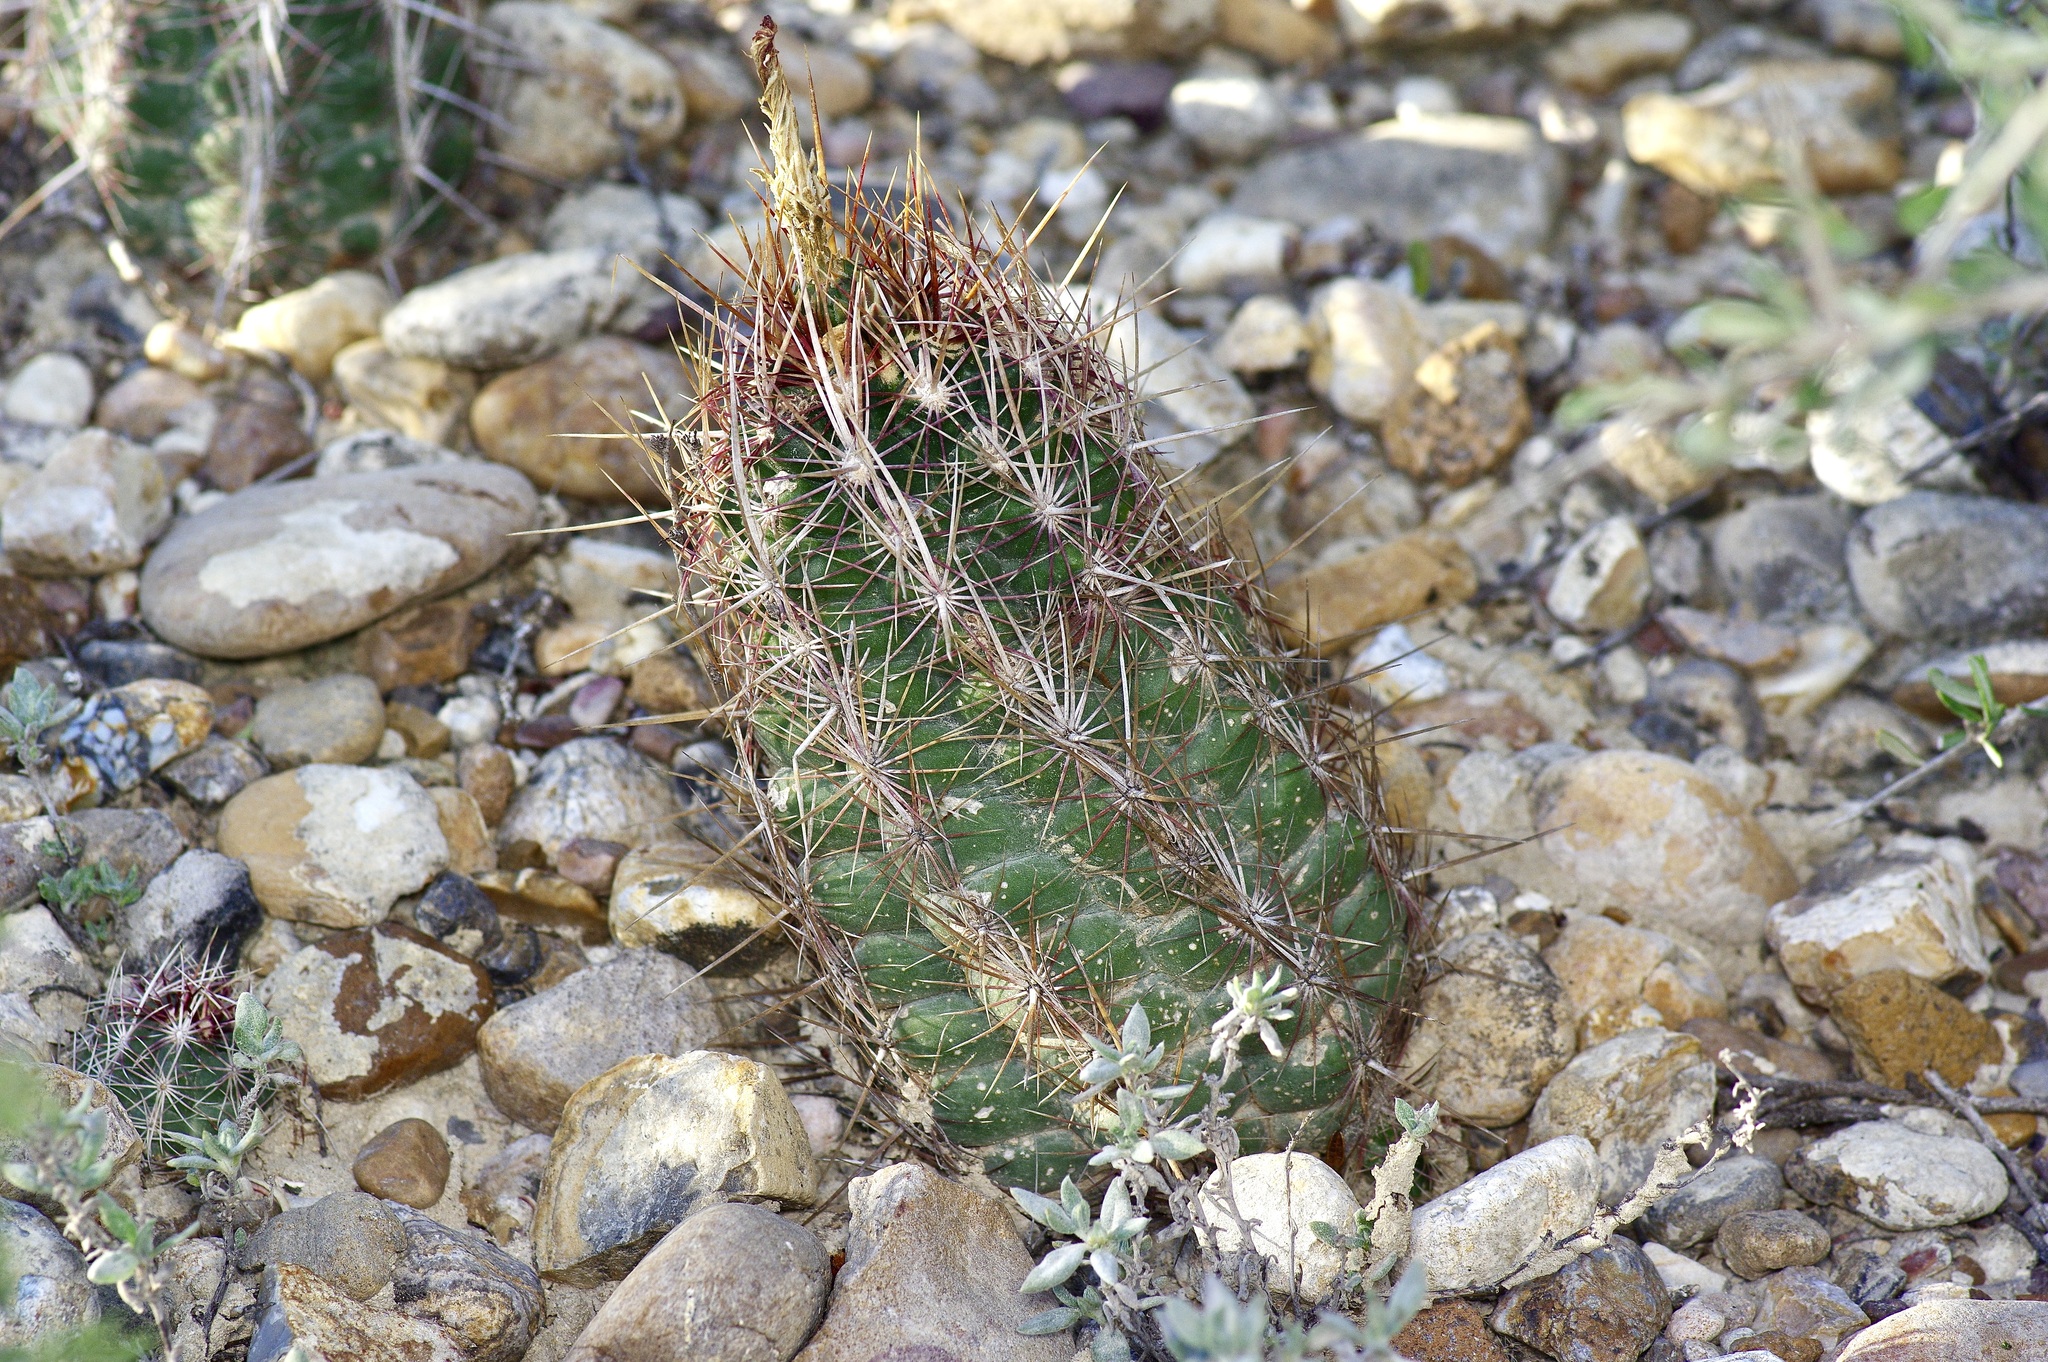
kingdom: Plantae
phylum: Tracheophyta
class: Magnoliopsida
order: Caryophyllales
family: Cactaceae
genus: Thelocactus
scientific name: Thelocactus bicolor
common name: Glory of texas
